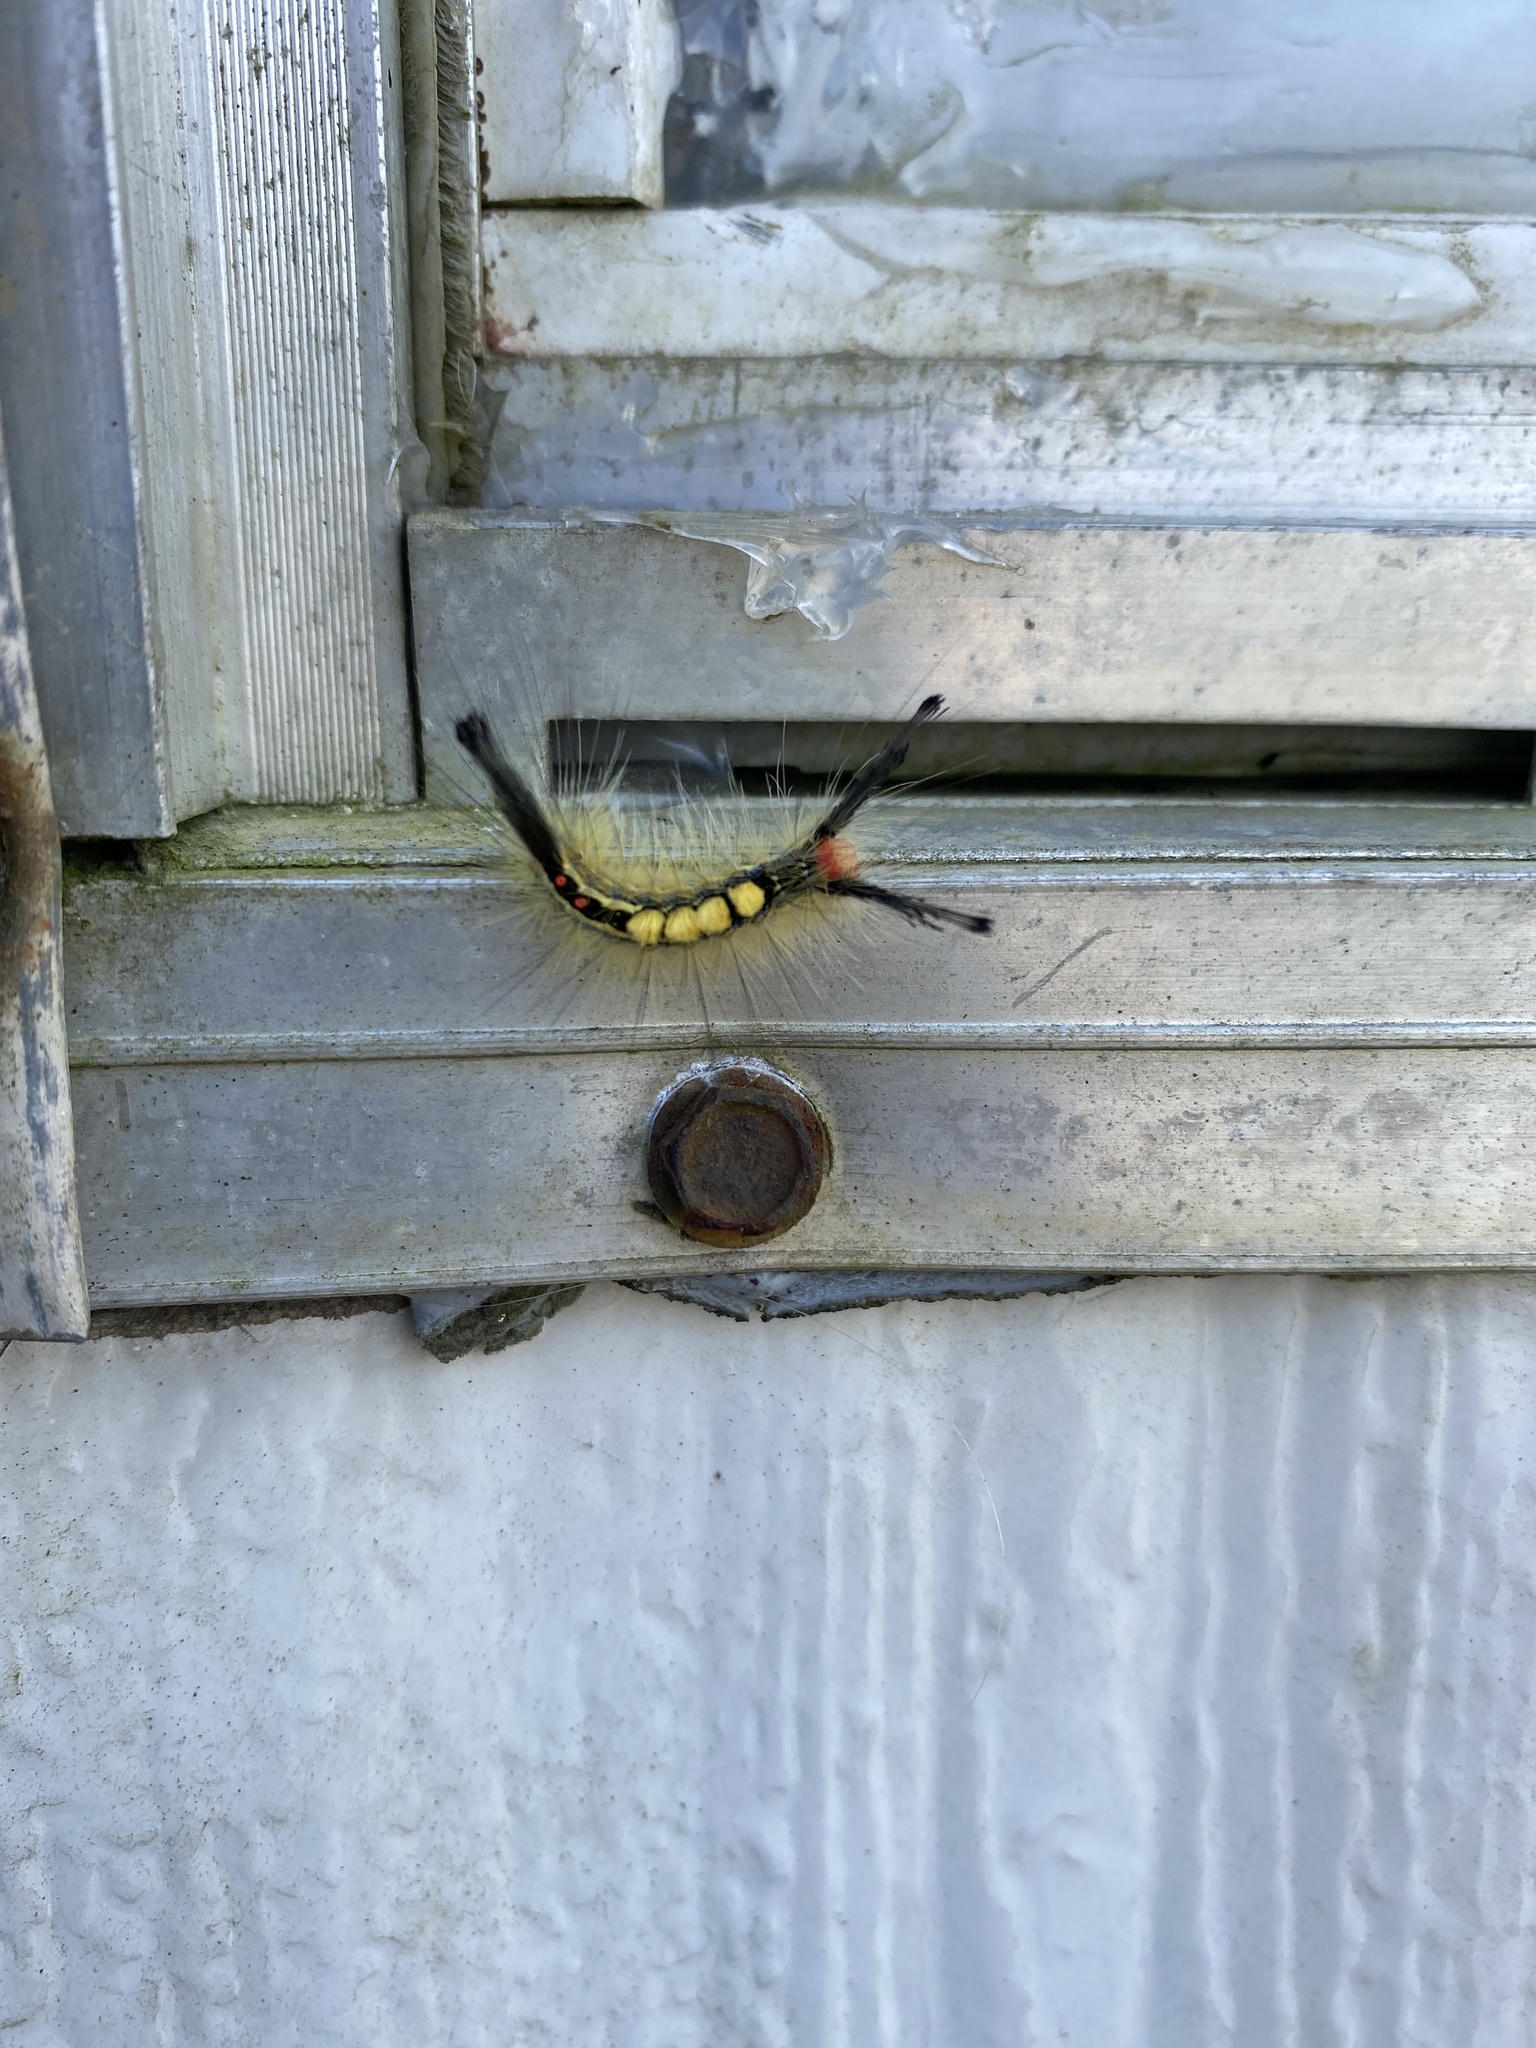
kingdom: Animalia
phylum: Arthropoda
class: Insecta
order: Lepidoptera
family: Erebidae
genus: Orgyia
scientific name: Orgyia leucostigma
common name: White-marked tussock moth
